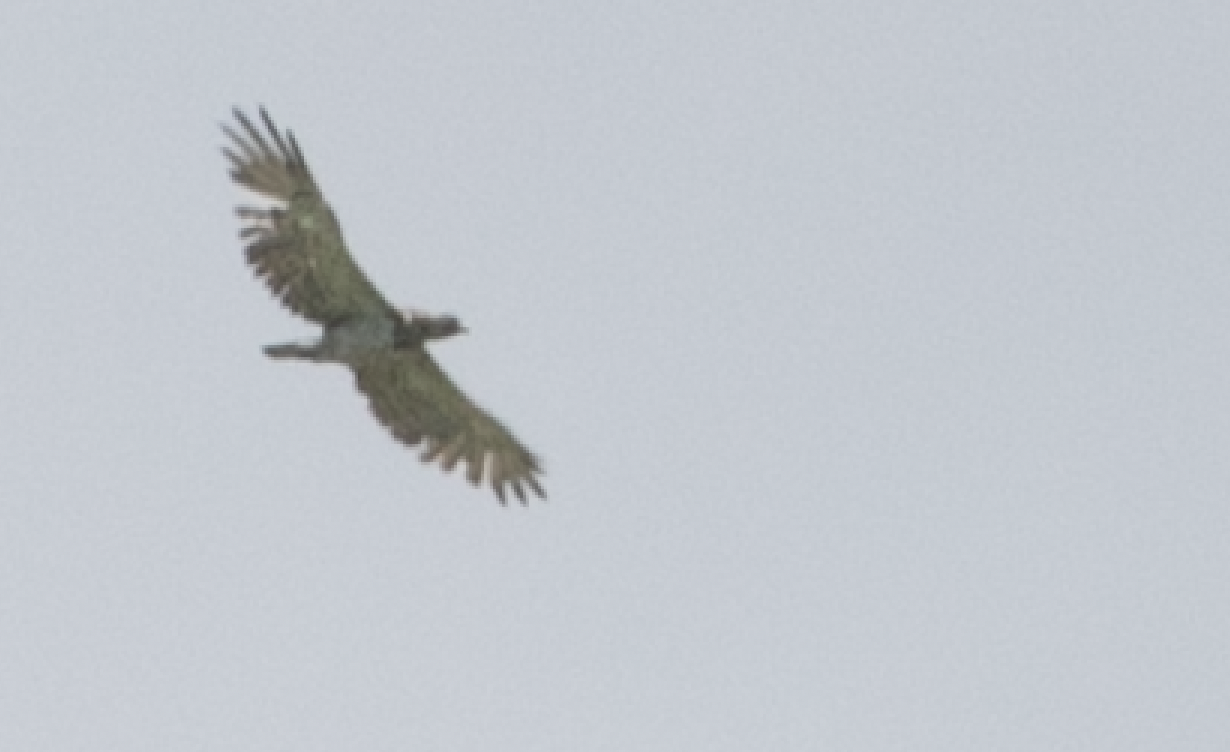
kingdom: Animalia
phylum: Chordata
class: Aves
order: Accipitriformes
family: Accipitridae
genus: Circaetus
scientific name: Circaetus gallicus
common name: Short-toed snake eagle
